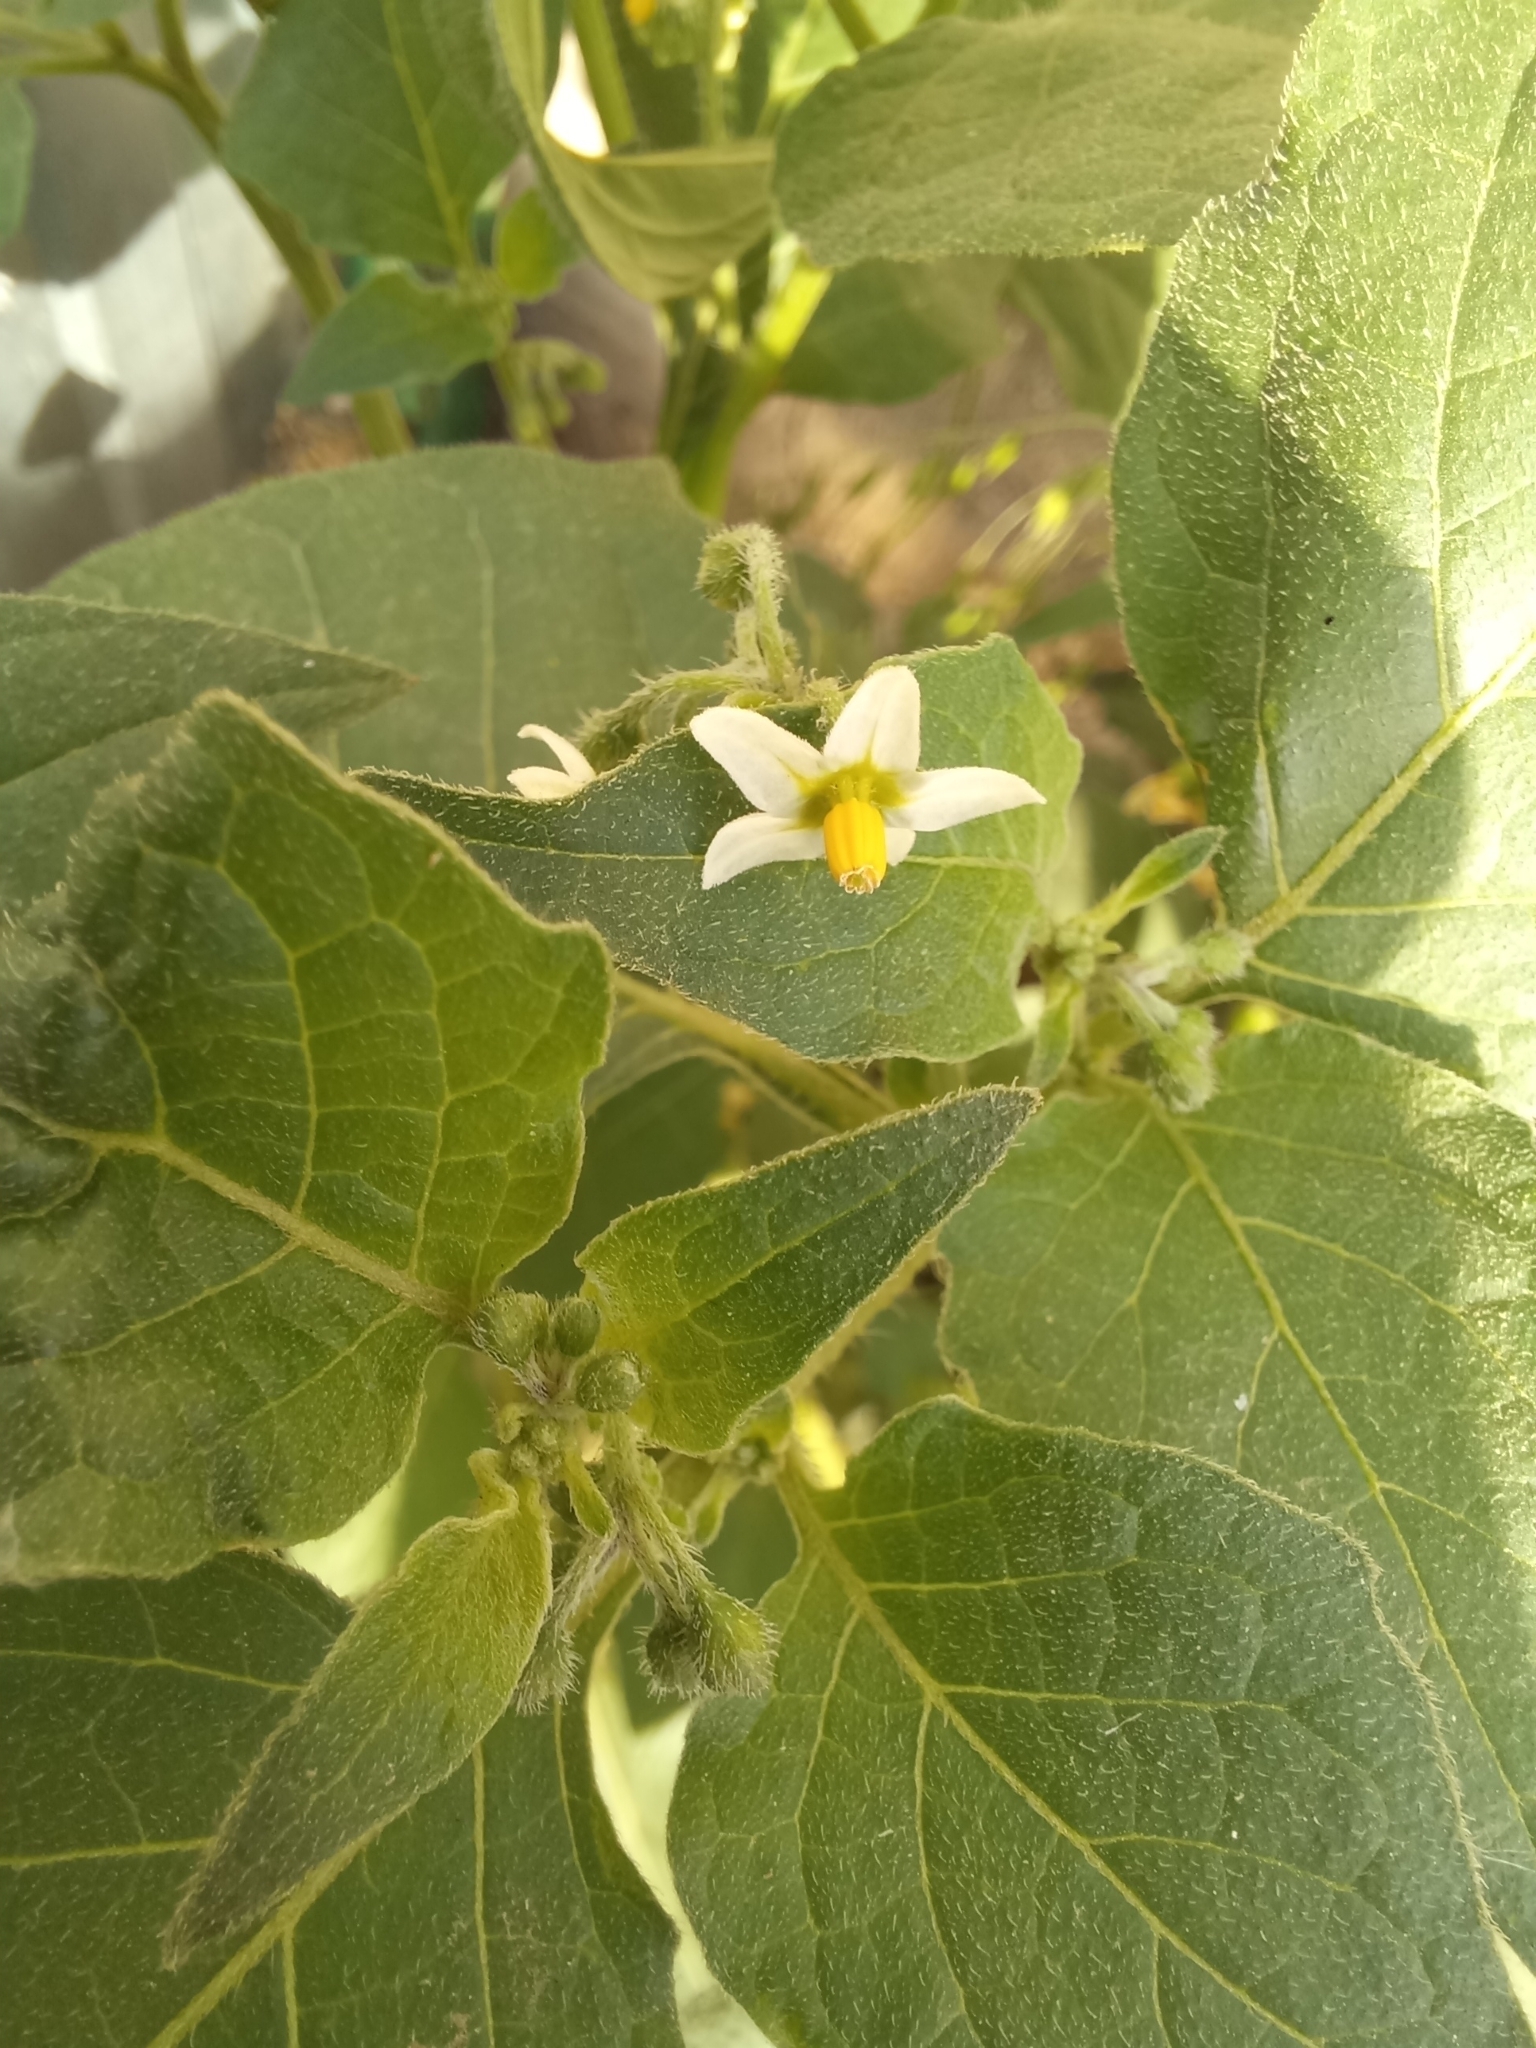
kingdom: Plantae
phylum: Tracheophyta
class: Magnoliopsida
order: Solanales
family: Solanaceae
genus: Solanum
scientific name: Solanum nigrum
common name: Black nightshade
